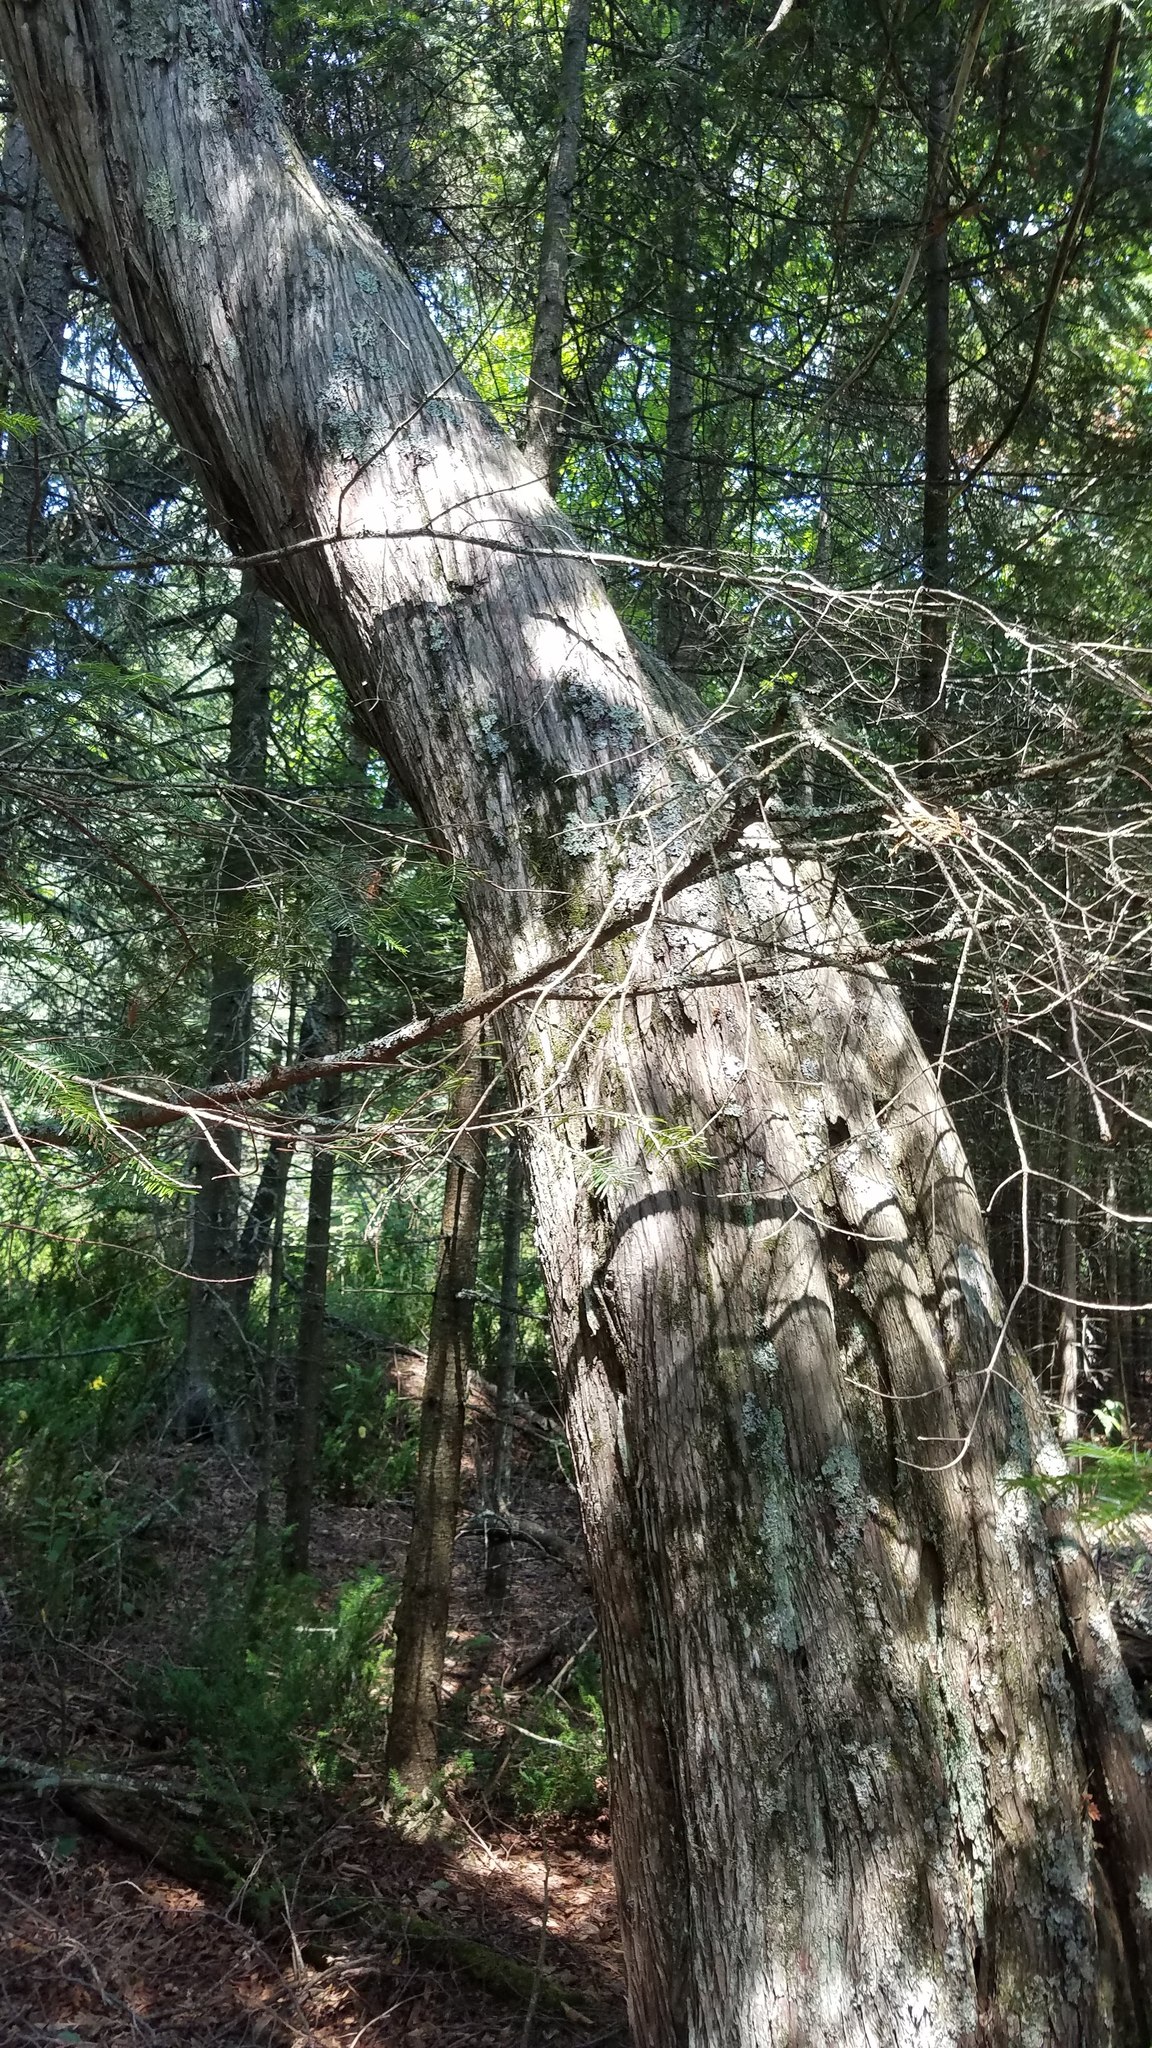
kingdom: Plantae
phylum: Tracheophyta
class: Pinopsida
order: Pinales
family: Cupressaceae
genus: Thuja
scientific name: Thuja occidentalis
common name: Northern white-cedar
